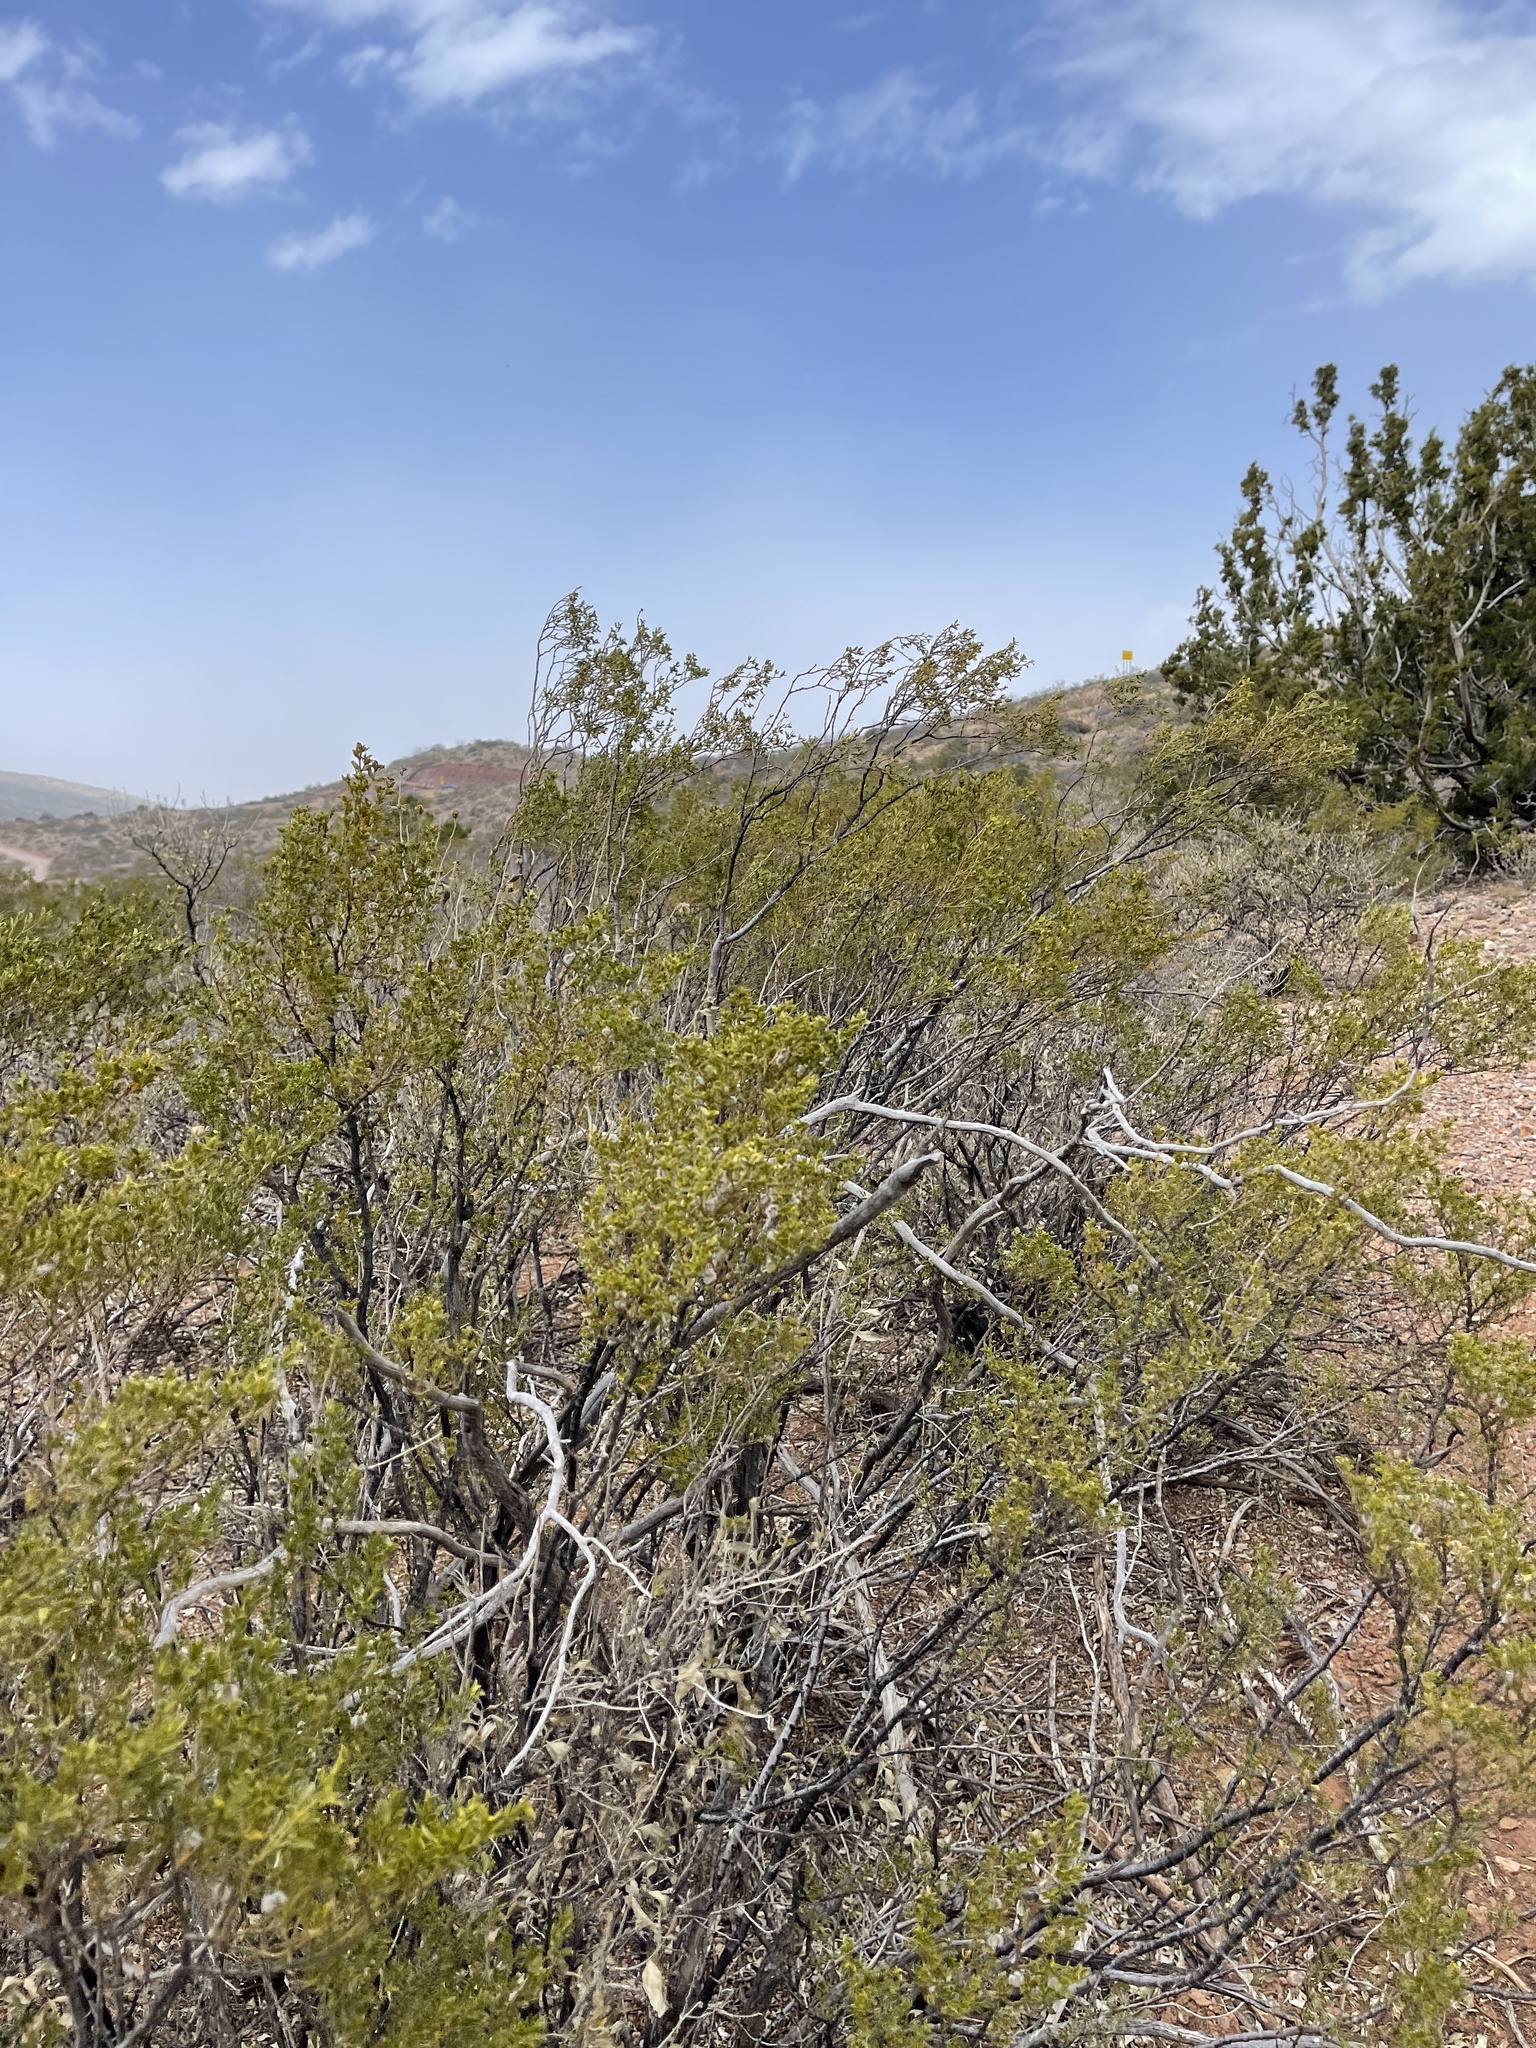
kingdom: Plantae
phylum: Tracheophyta
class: Magnoliopsida
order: Zygophyllales
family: Zygophyllaceae
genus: Larrea
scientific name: Larrea tridentata
